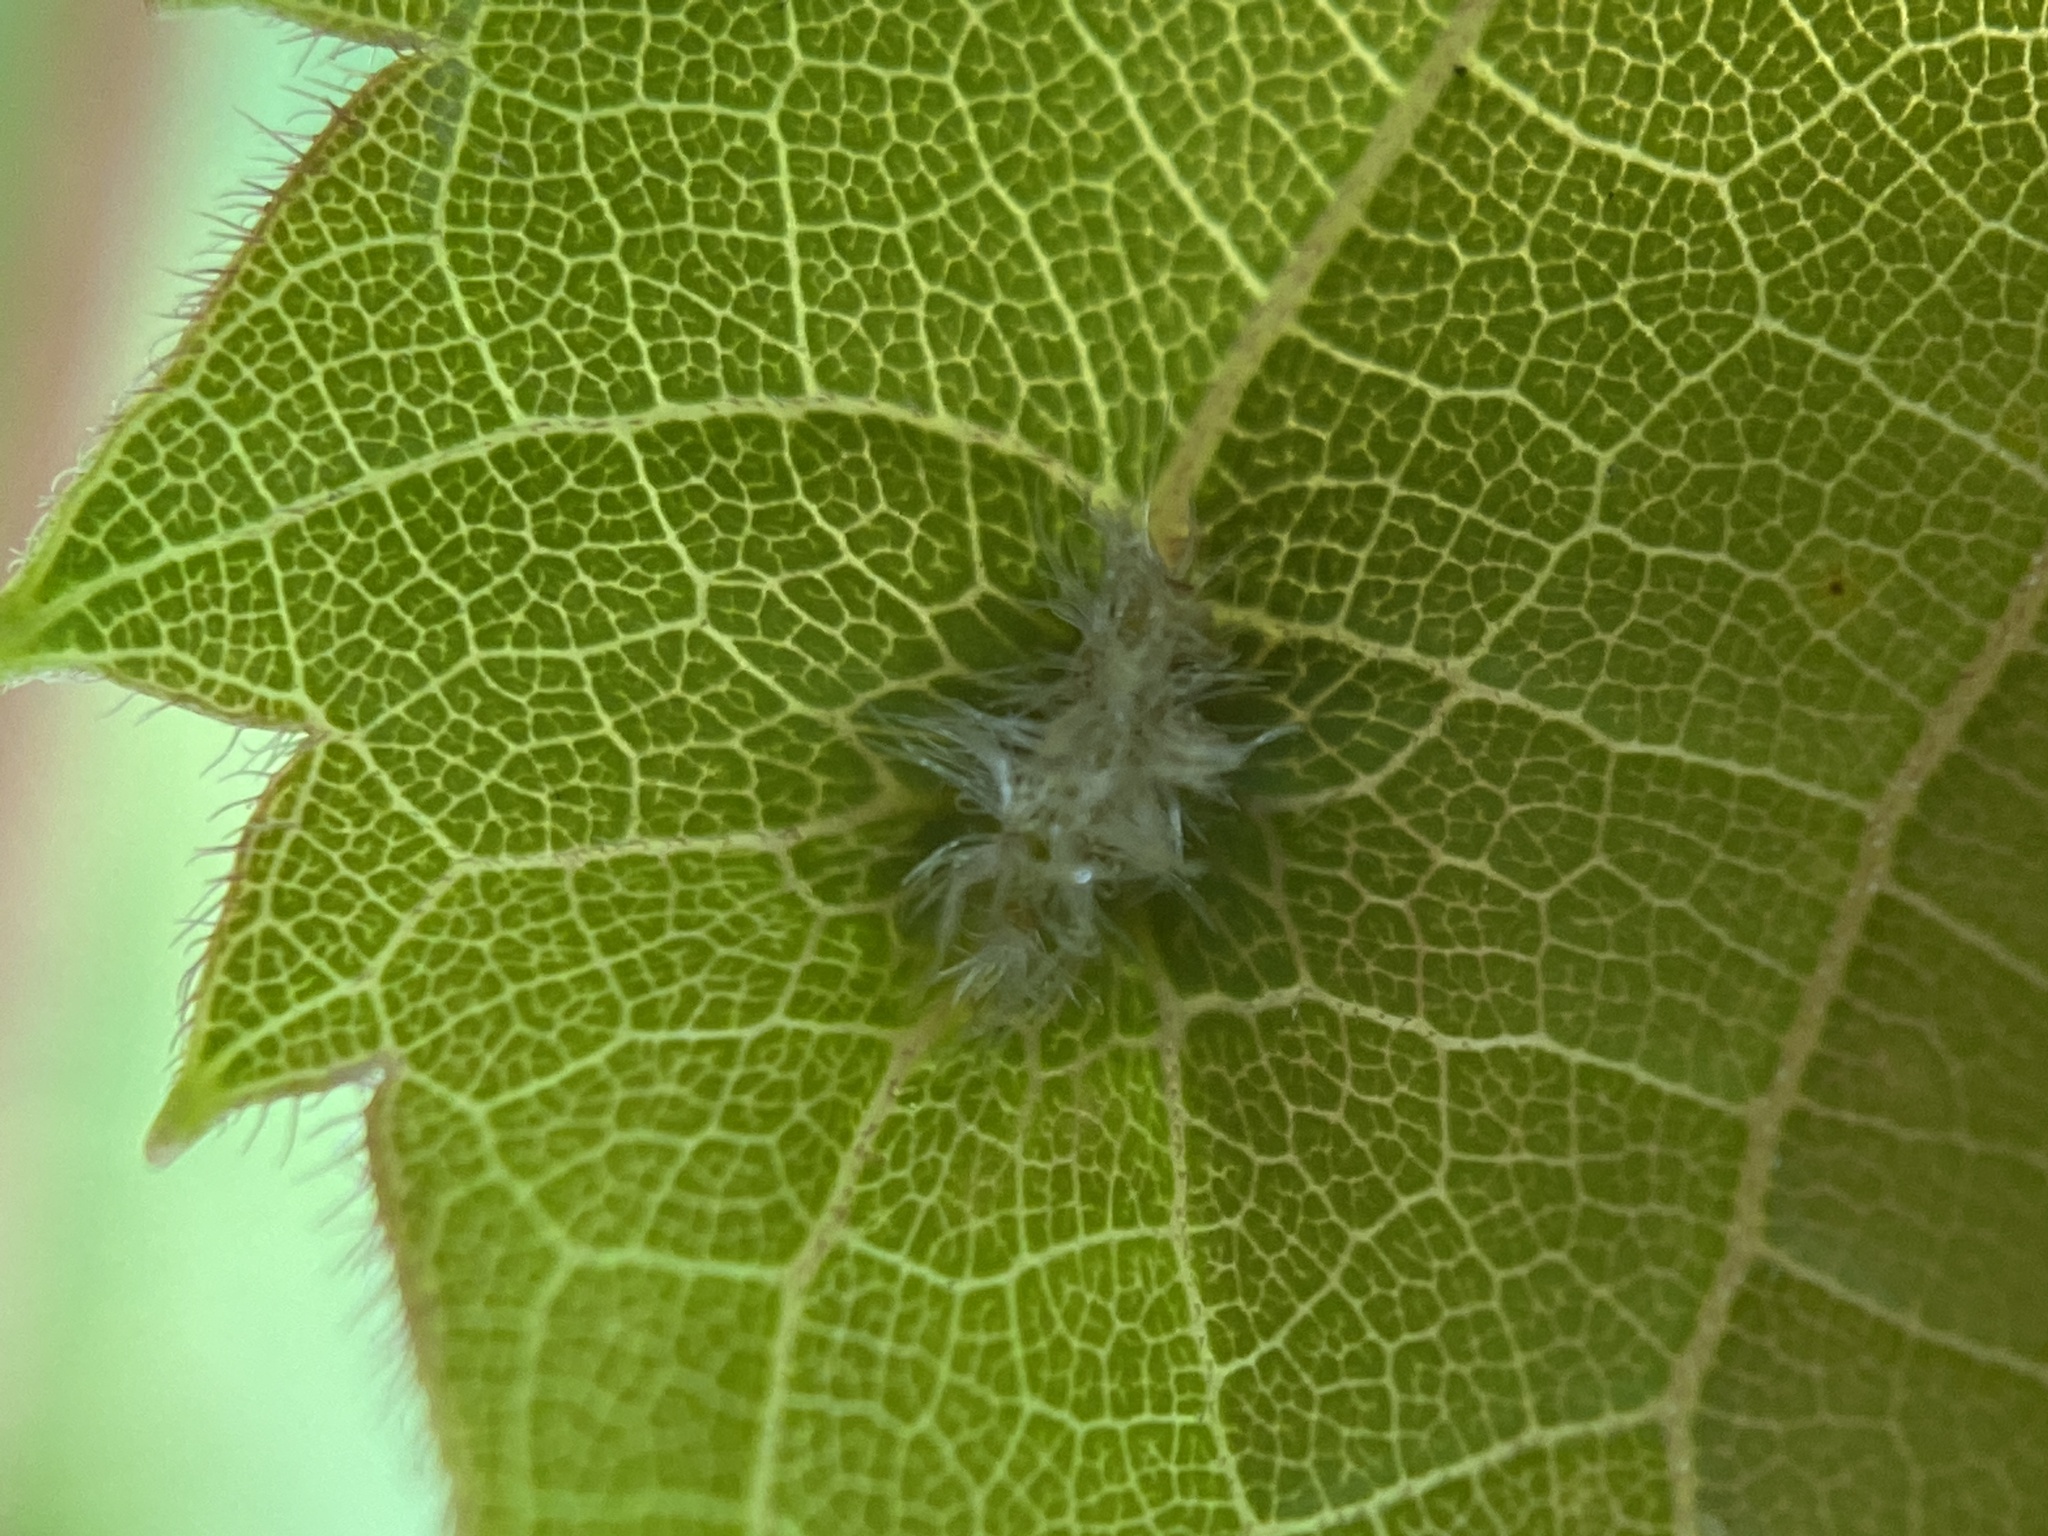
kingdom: Animalia
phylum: Arthropoda
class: Insecta
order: Hemiptera
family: Phylloxeridae
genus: Daktulosphaira
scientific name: Daktulosphaira vitifoliae
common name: Grape phylloxera
